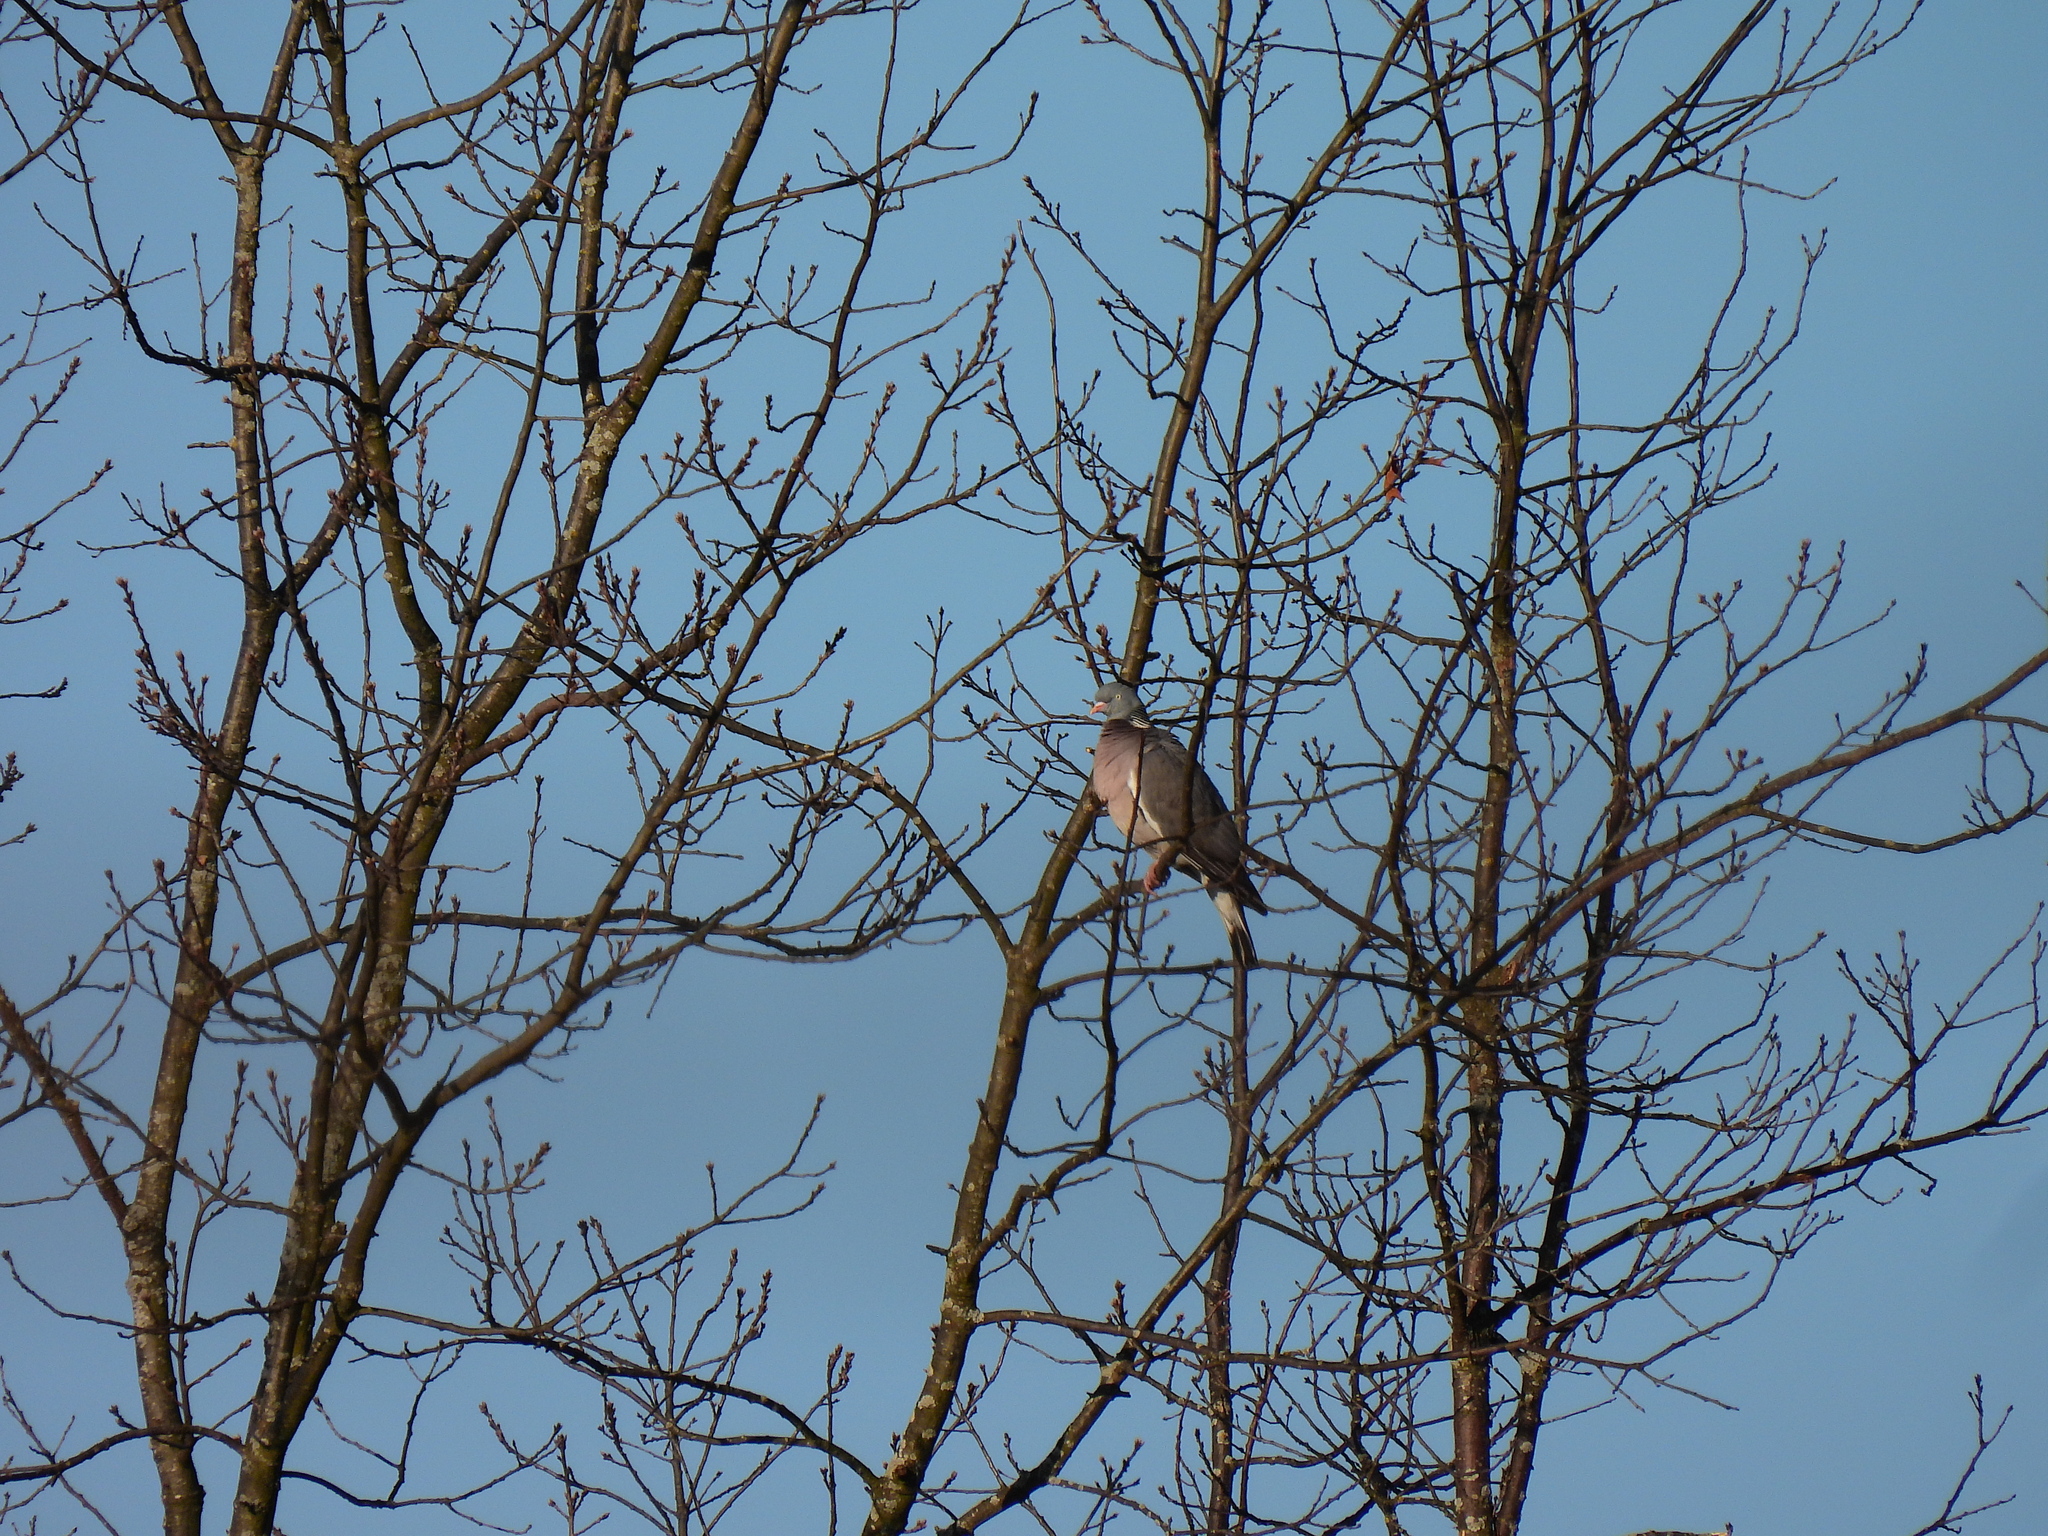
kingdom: Animalia
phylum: Chordata
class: Aves
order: Columbiformes
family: Columbidae
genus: Columba
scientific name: Columba palumbus
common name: Common wood pigeon
